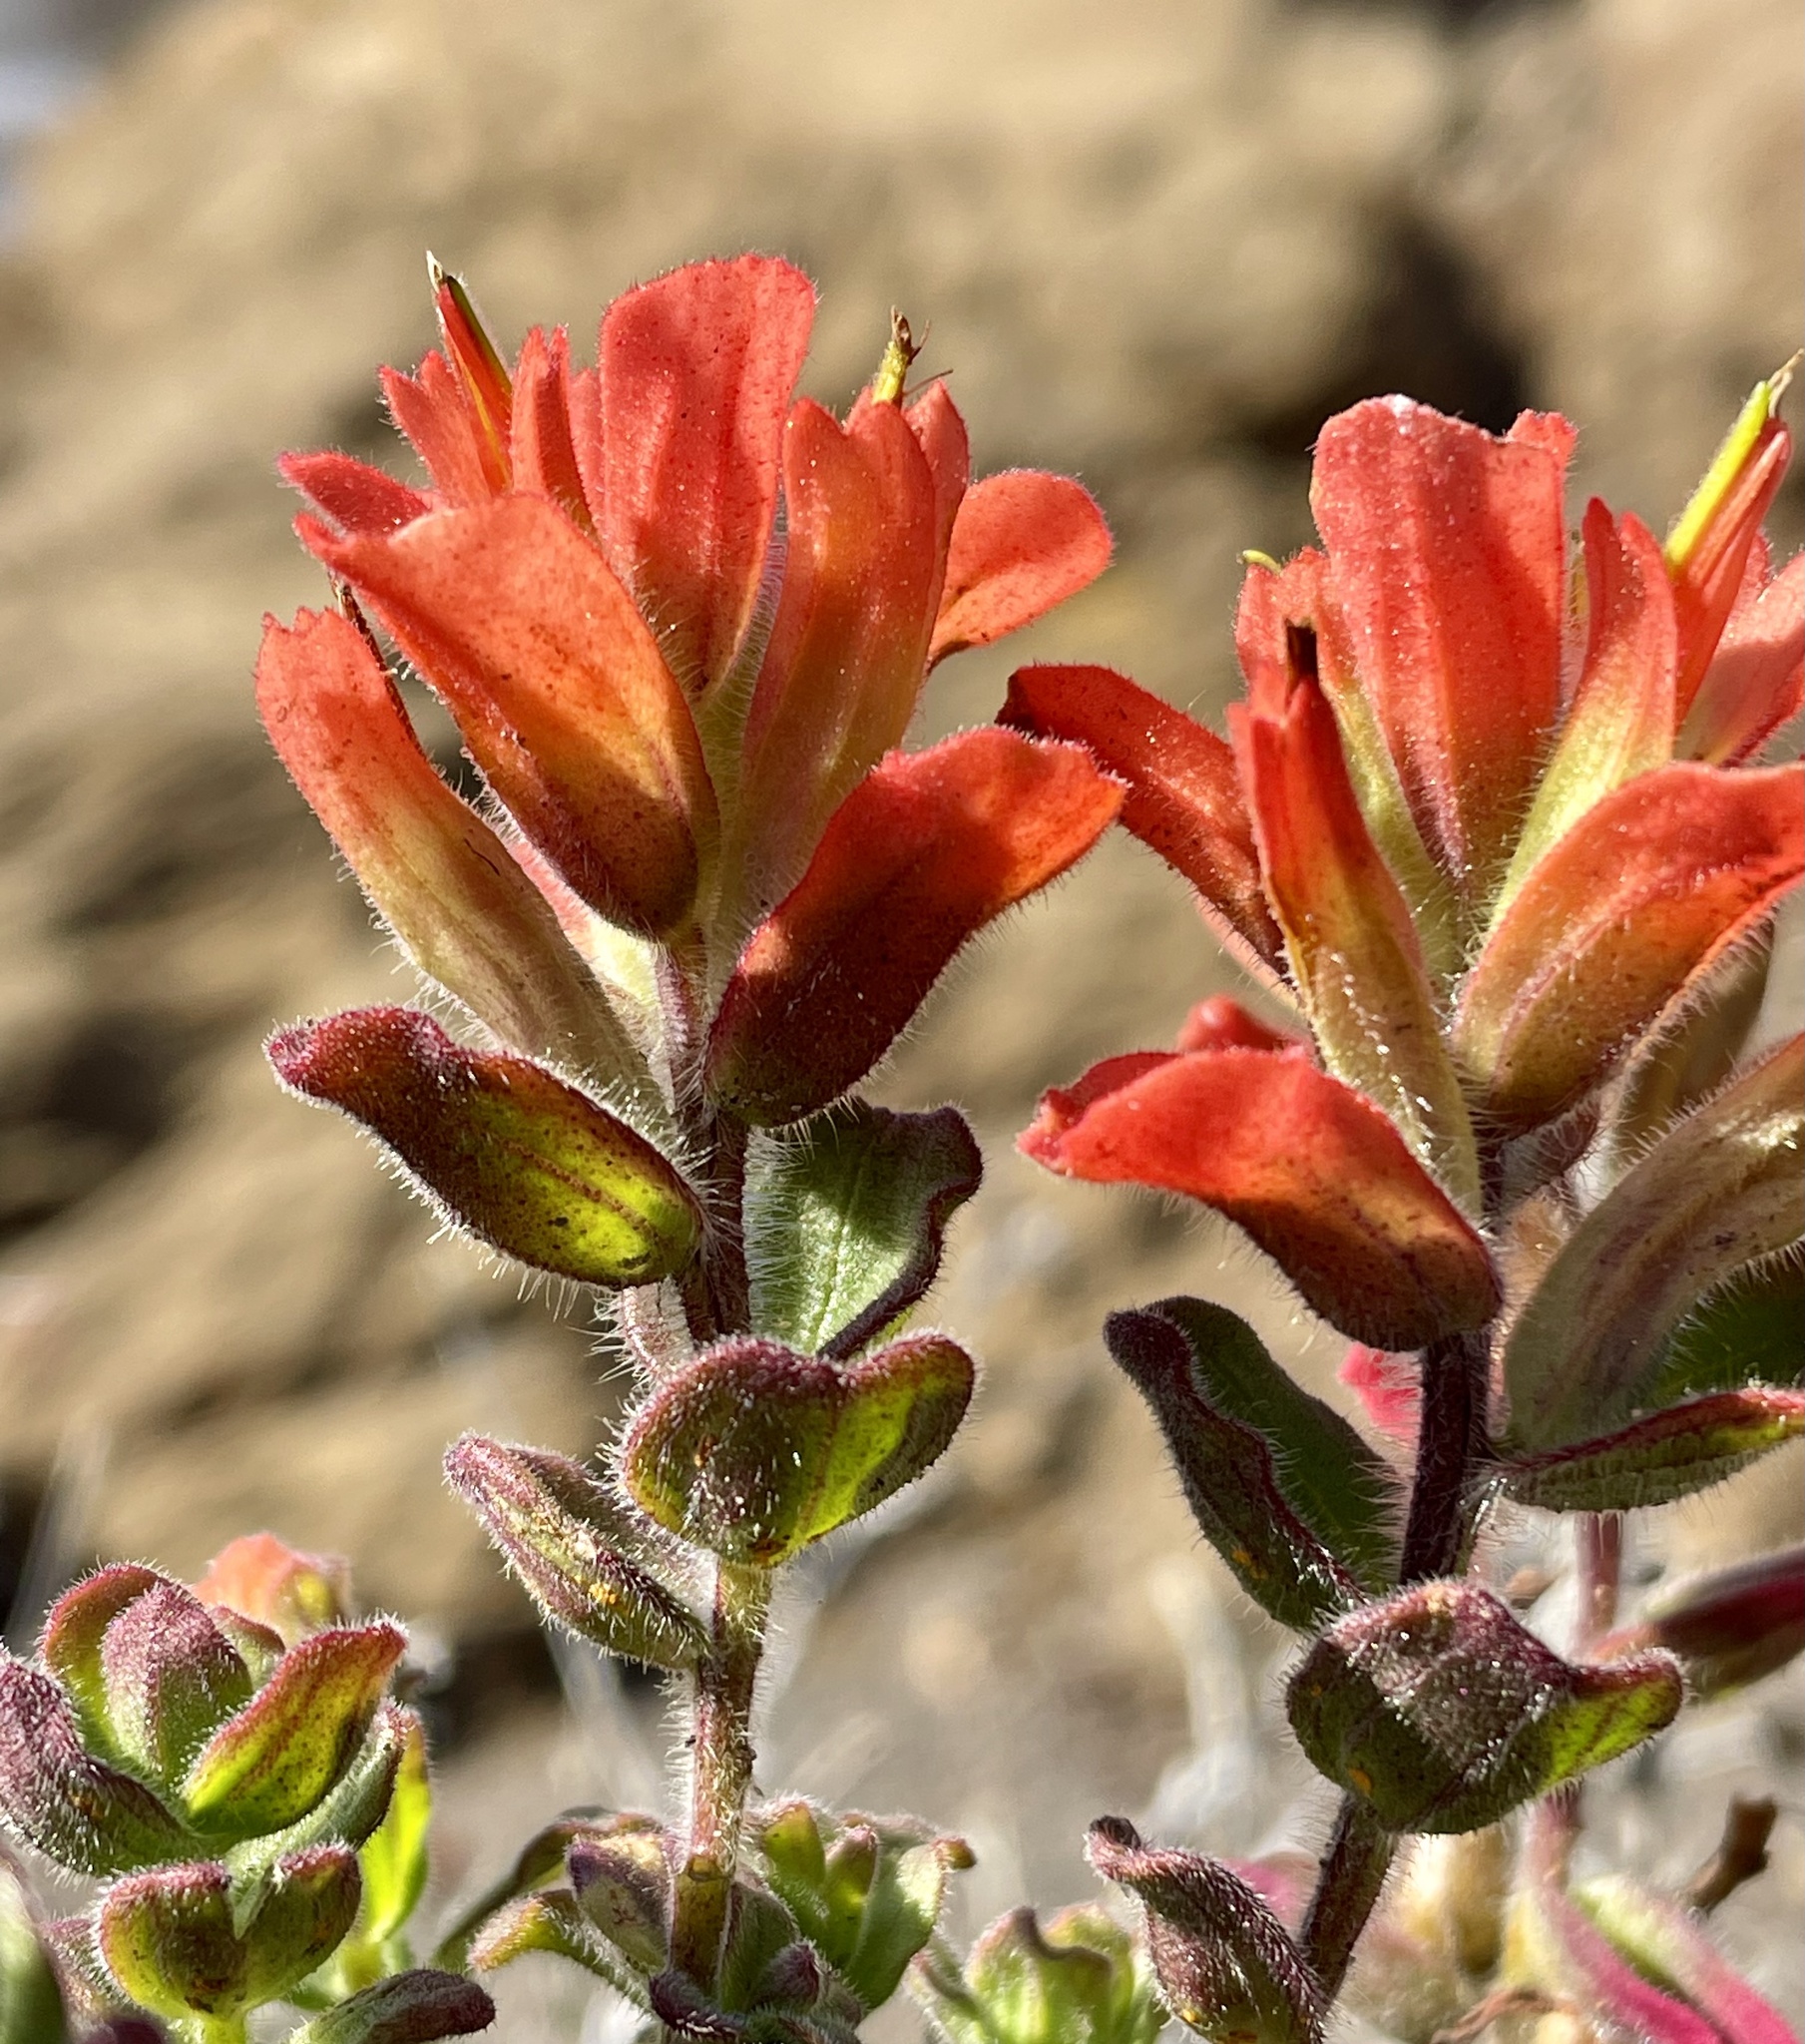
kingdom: Plantae
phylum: Tracheophyta
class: Magnoliopsida
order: Lamiales
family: Orobanchaceae
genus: Castilleja
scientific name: Castilleja latifolia
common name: Monterey indian paintbrush
